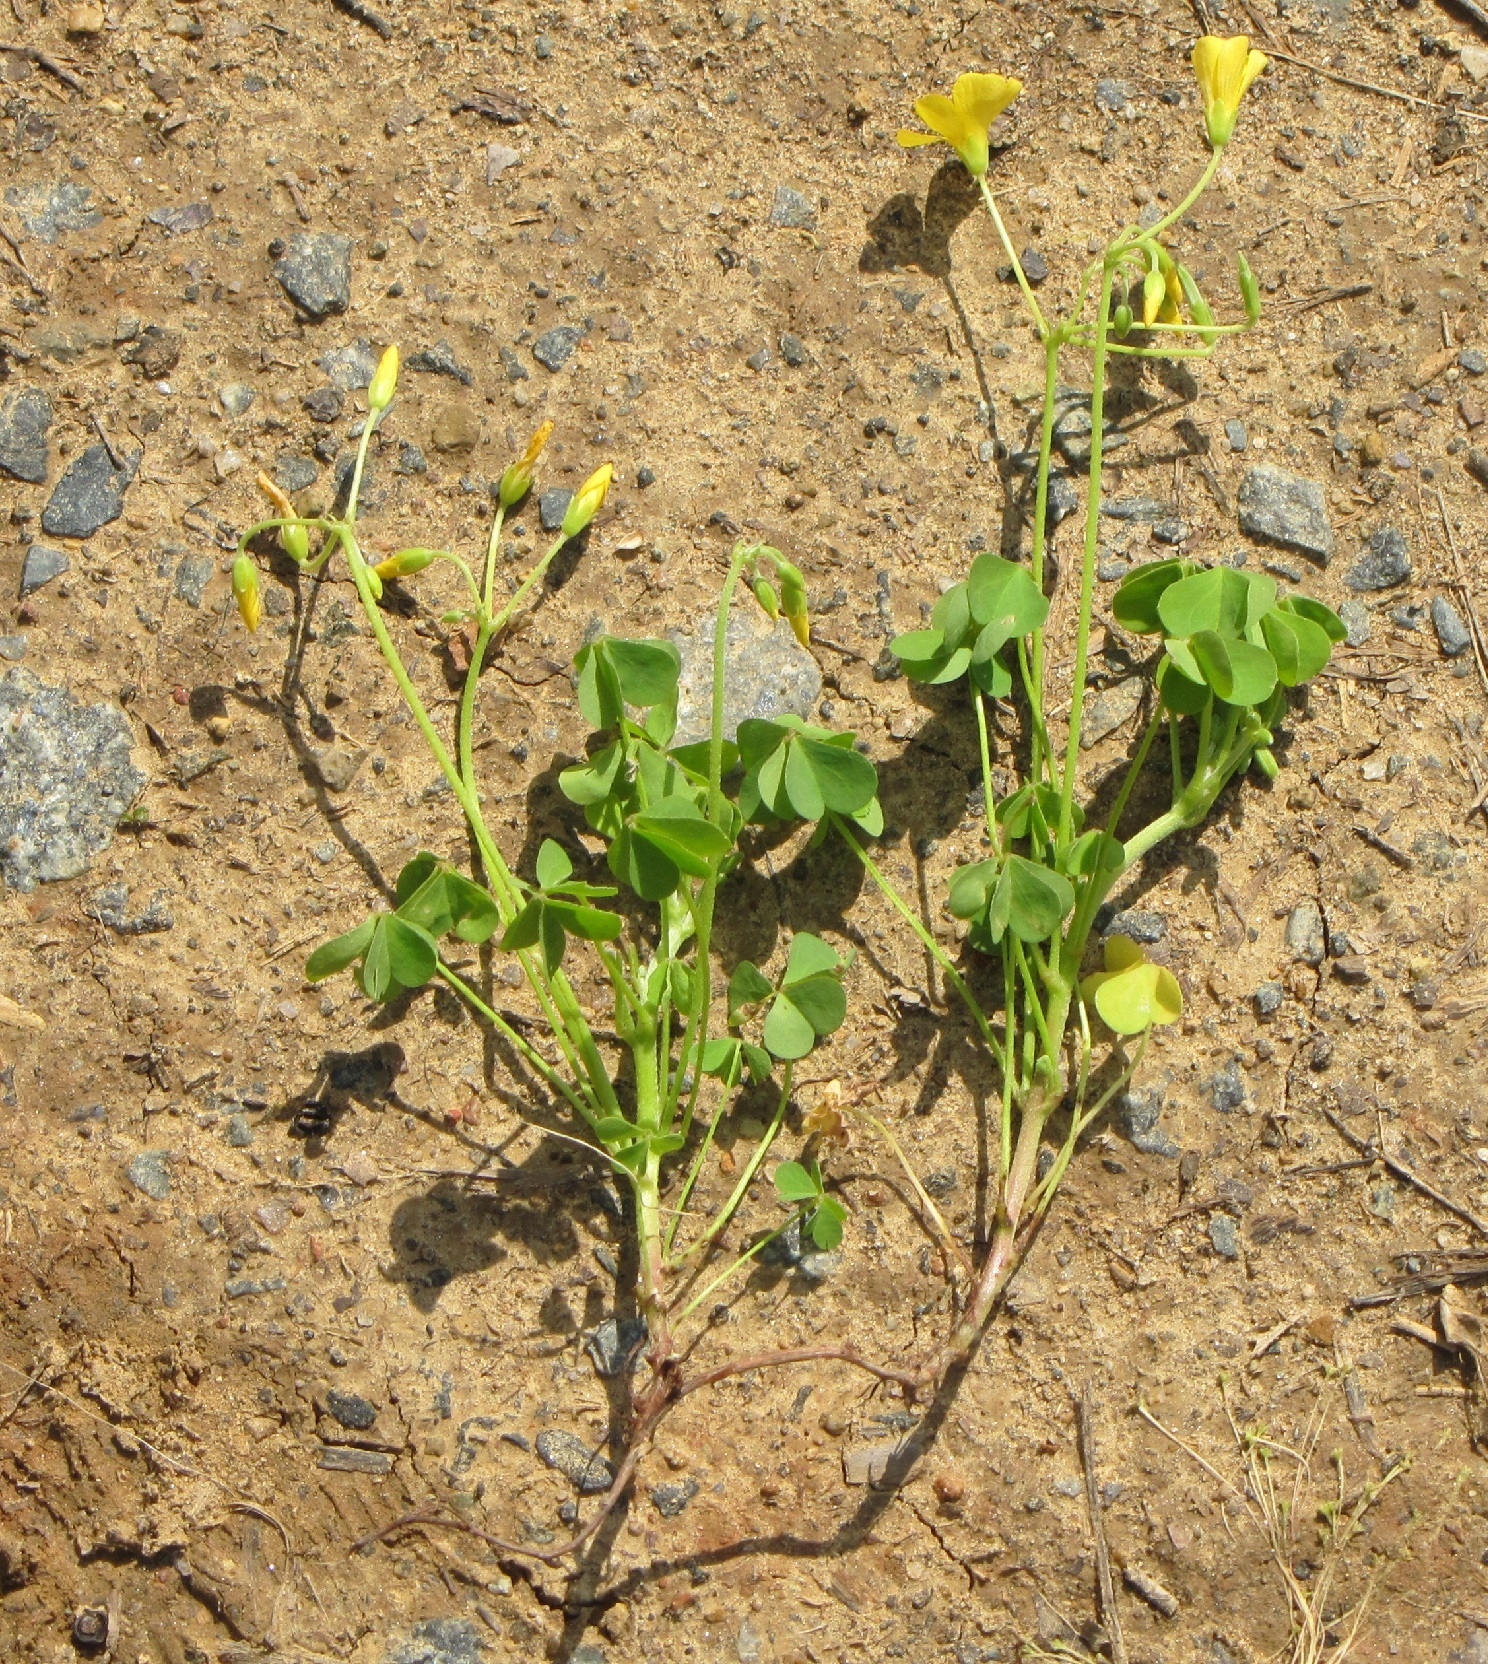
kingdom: Plantae
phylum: Tracheophyta
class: Magnoliopsida
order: Oxalidales
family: Oxalidaceae
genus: Oxalis
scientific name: Oxalis dillenii
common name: Sussex yellow-sorrel
